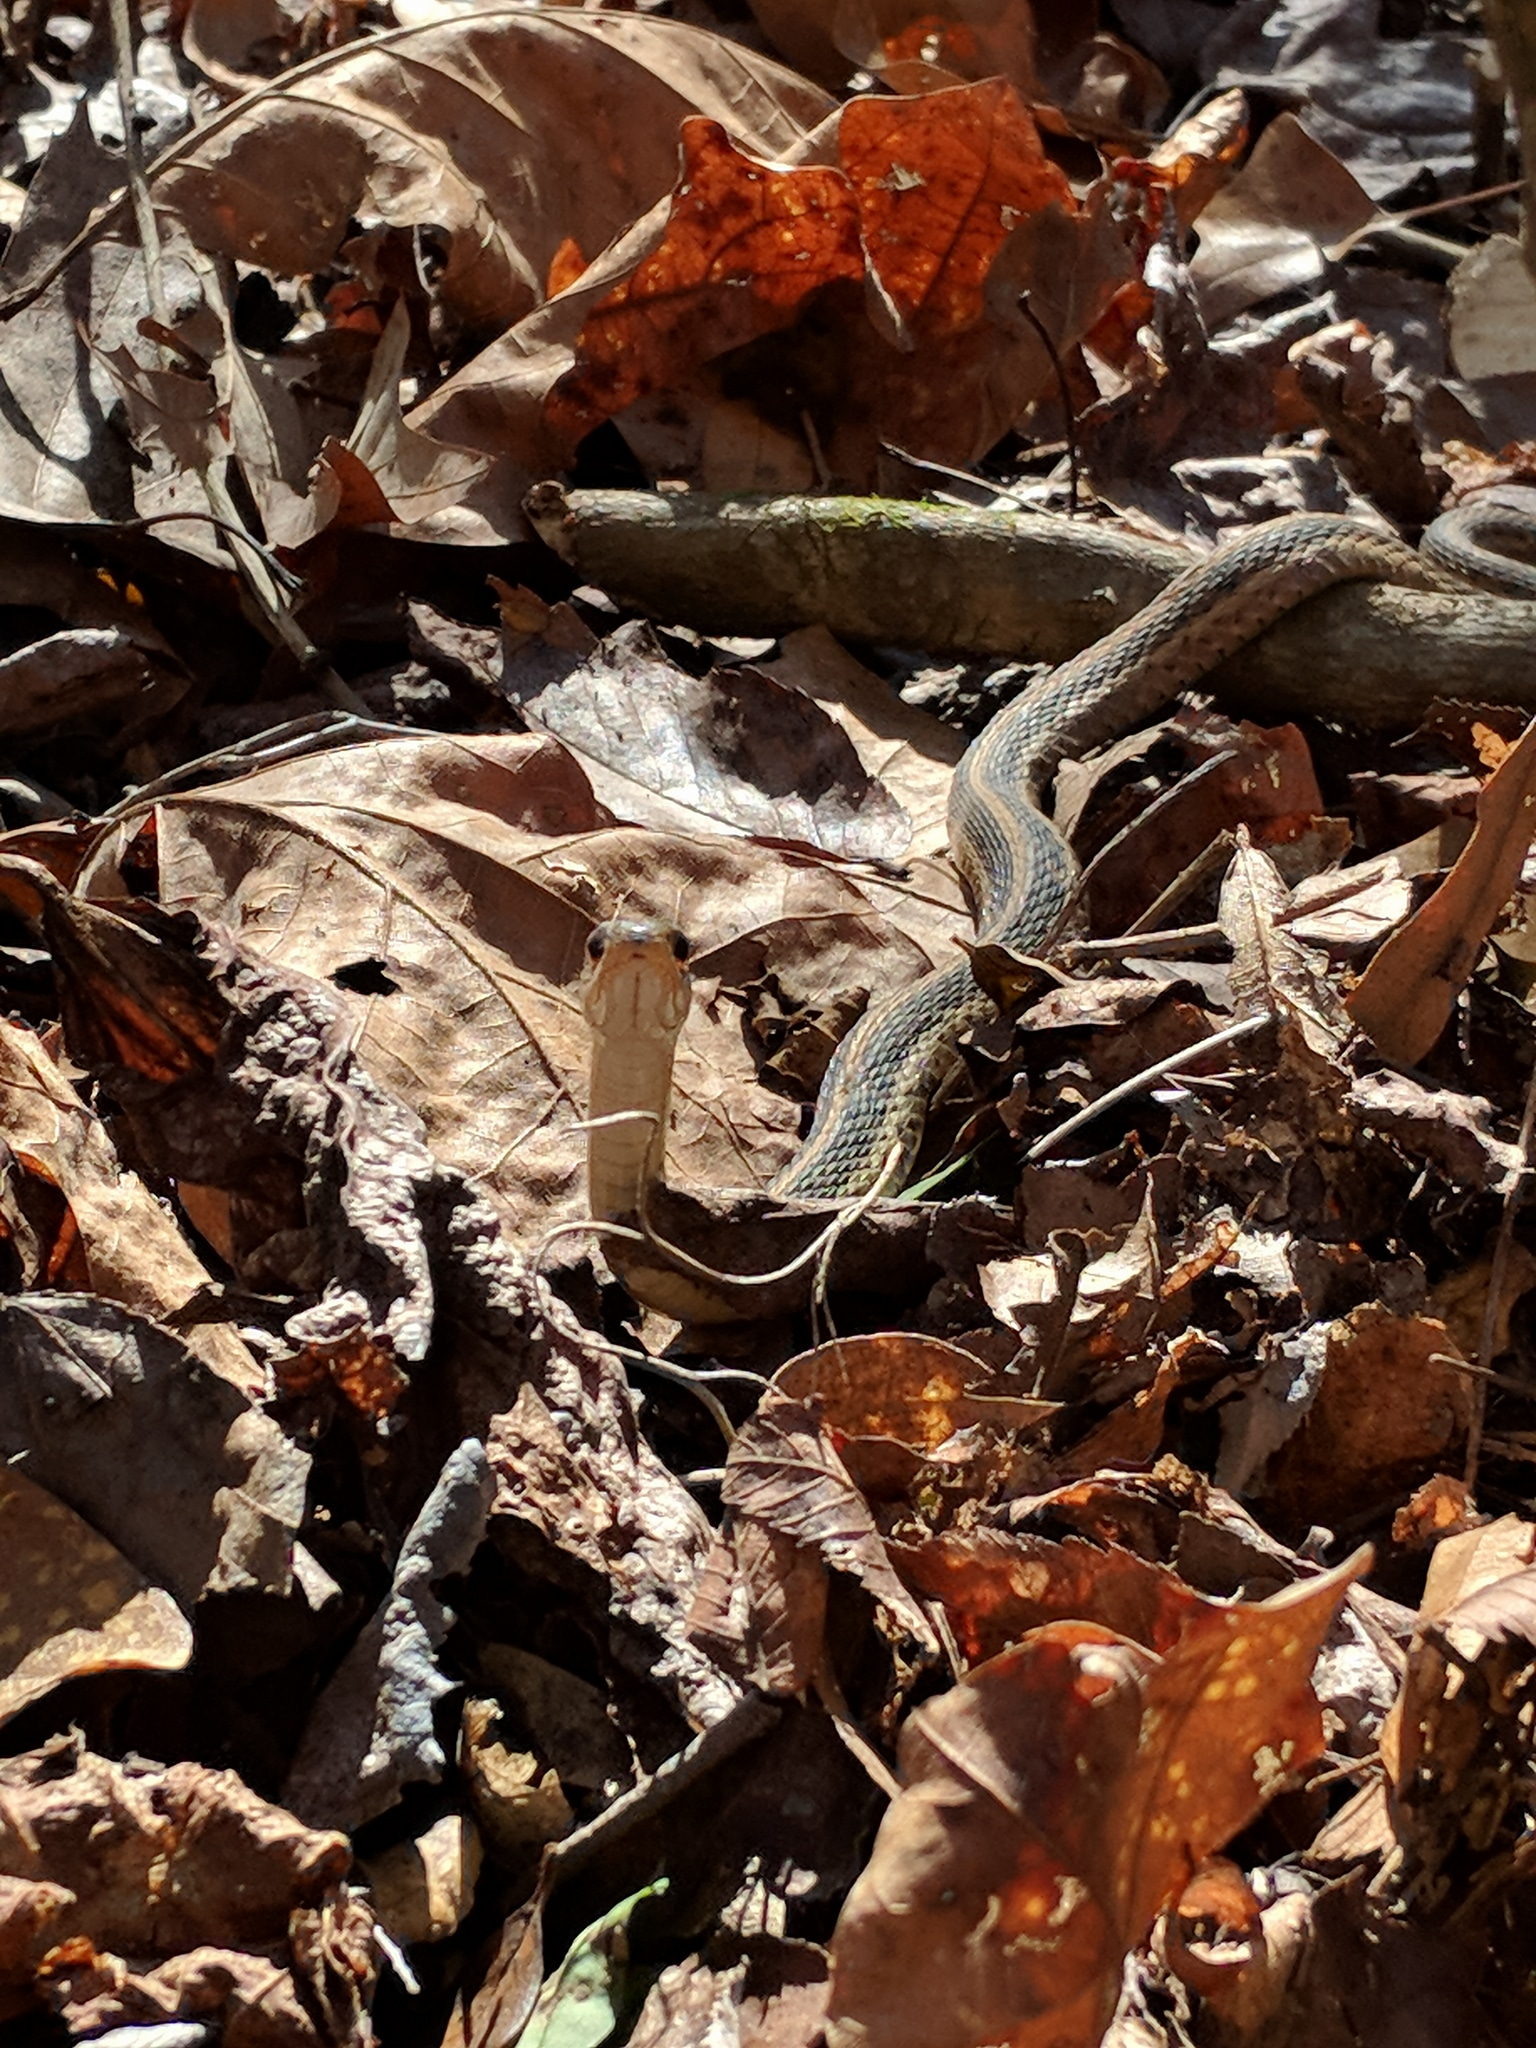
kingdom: Animalia
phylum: Chordata
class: Squamata
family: Colubridae
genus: Thamnophis
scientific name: Thamnophis sirtalis
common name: Common garter snake
